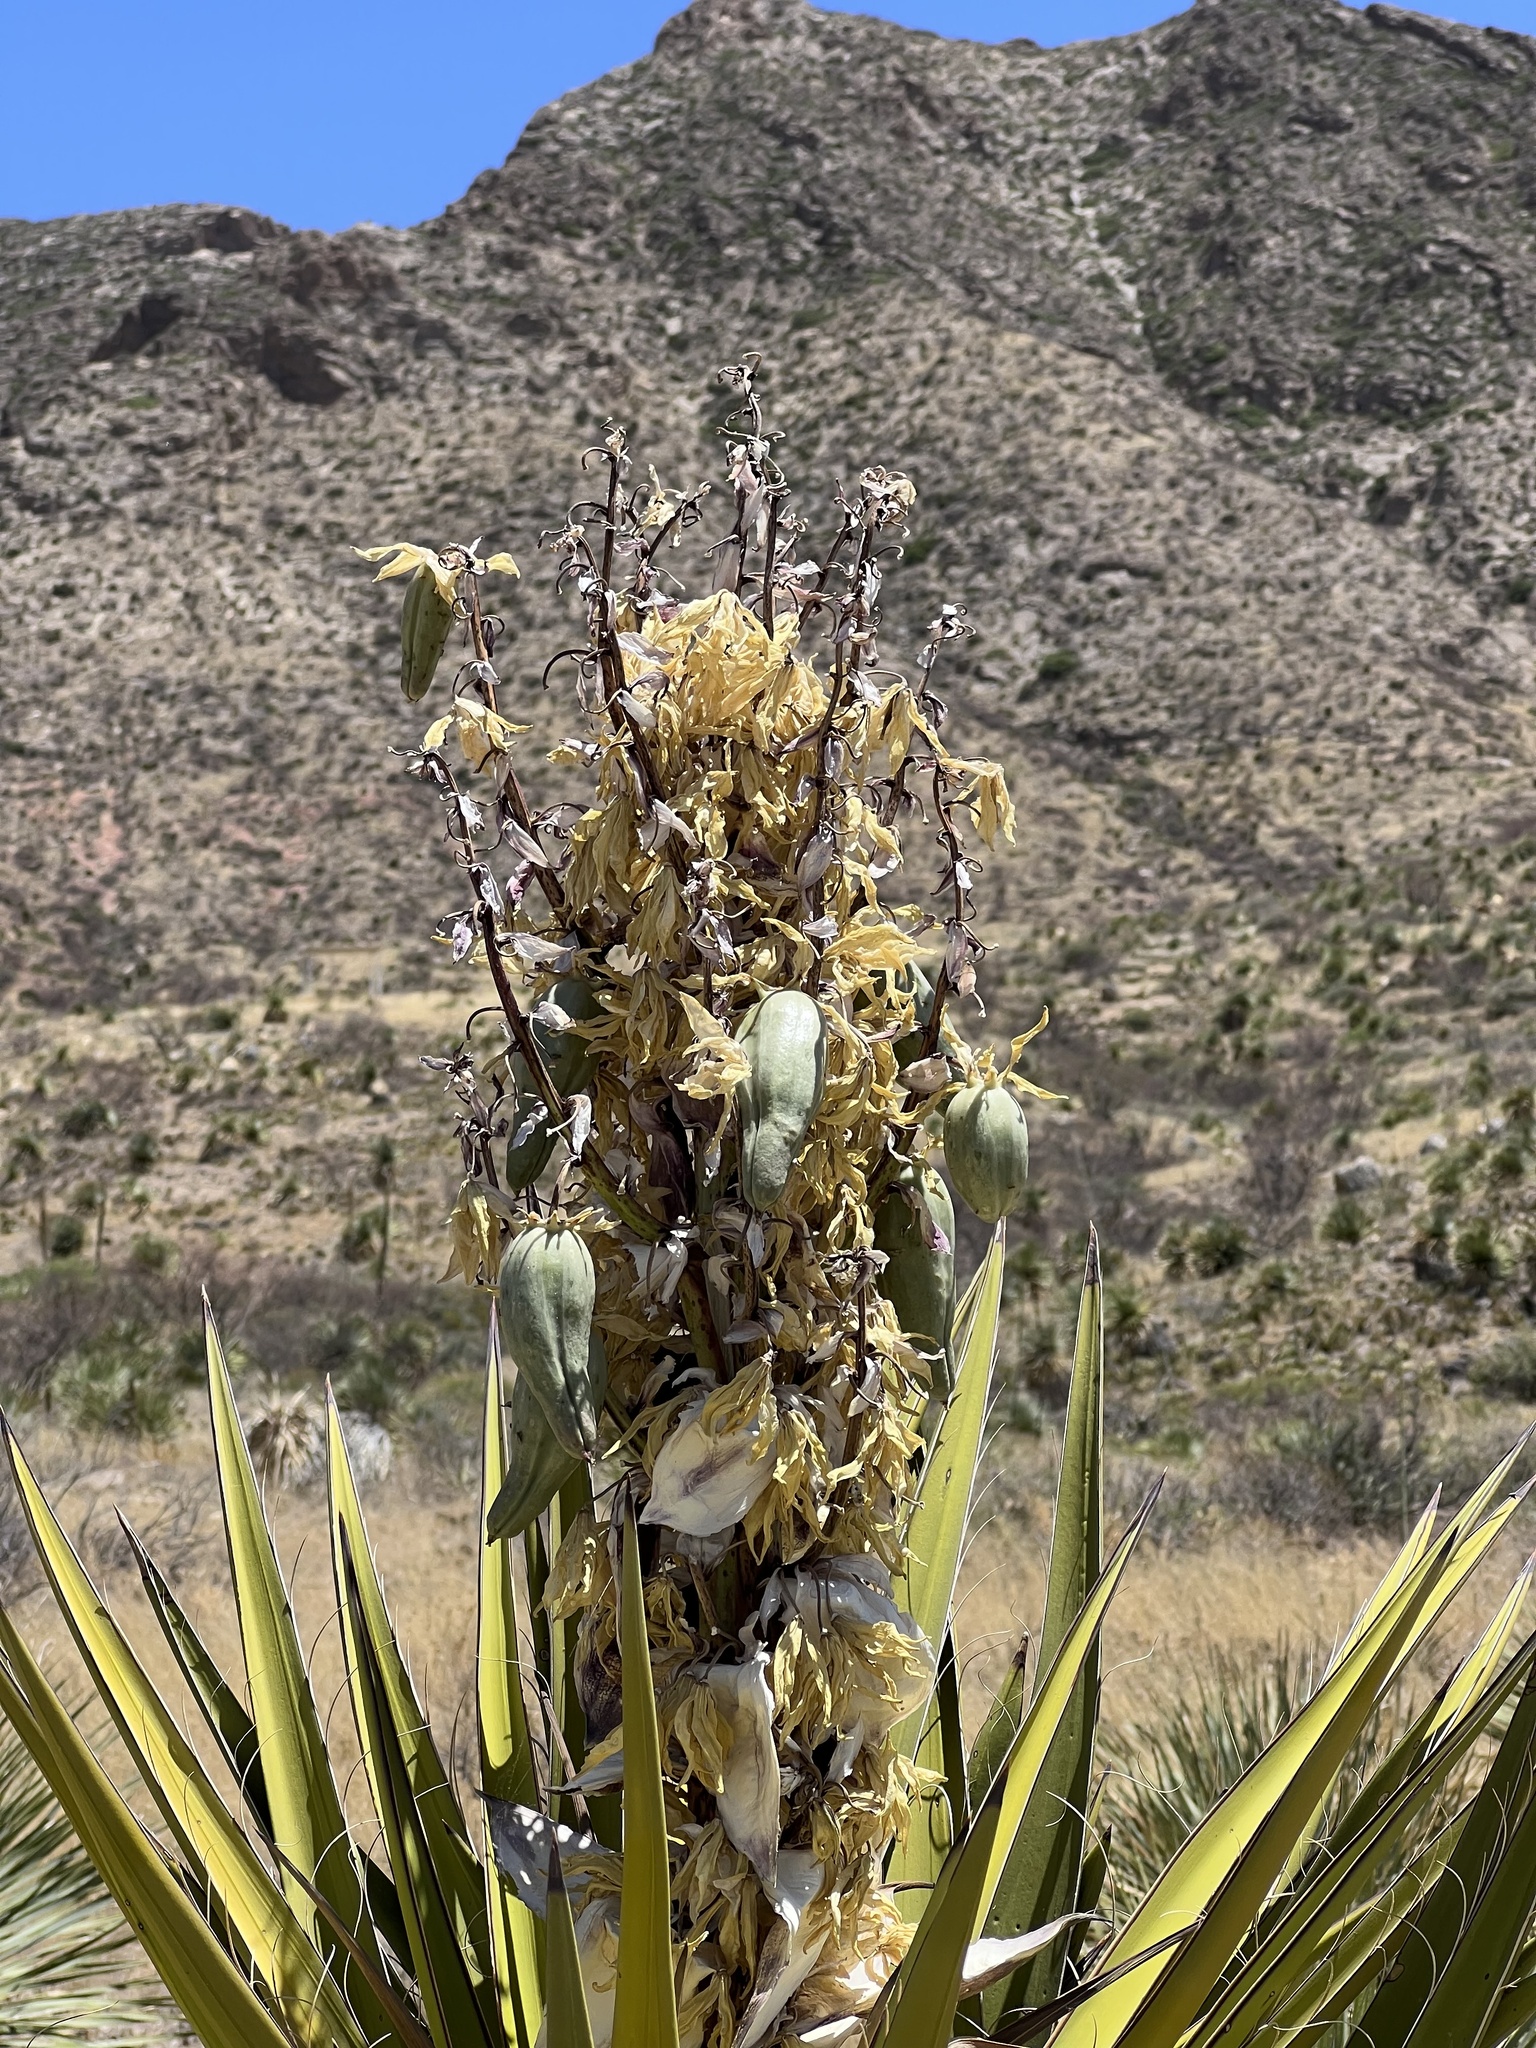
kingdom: Plantae
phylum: Tracheophyta
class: Liliopsida
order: Asparagales
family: Asparagaceae
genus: Yucca
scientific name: Yucca treculiana
